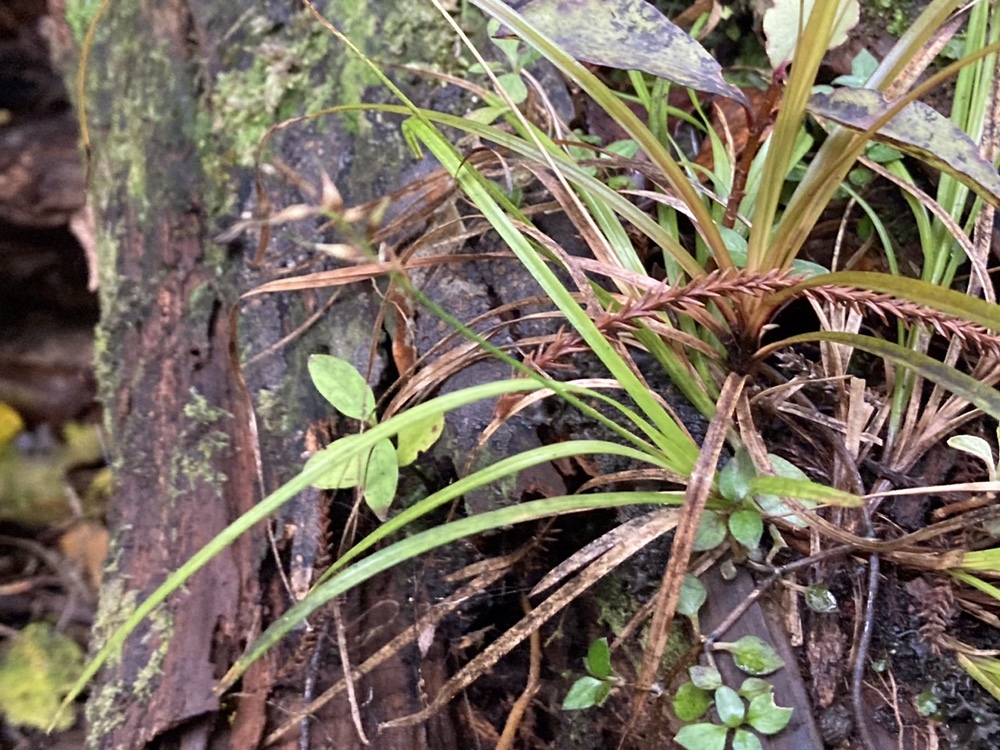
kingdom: Plantae
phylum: Tracheophyta
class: Liliopsida
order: Poales
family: Cyperaceae
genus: Carex
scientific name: Carex zotovii
